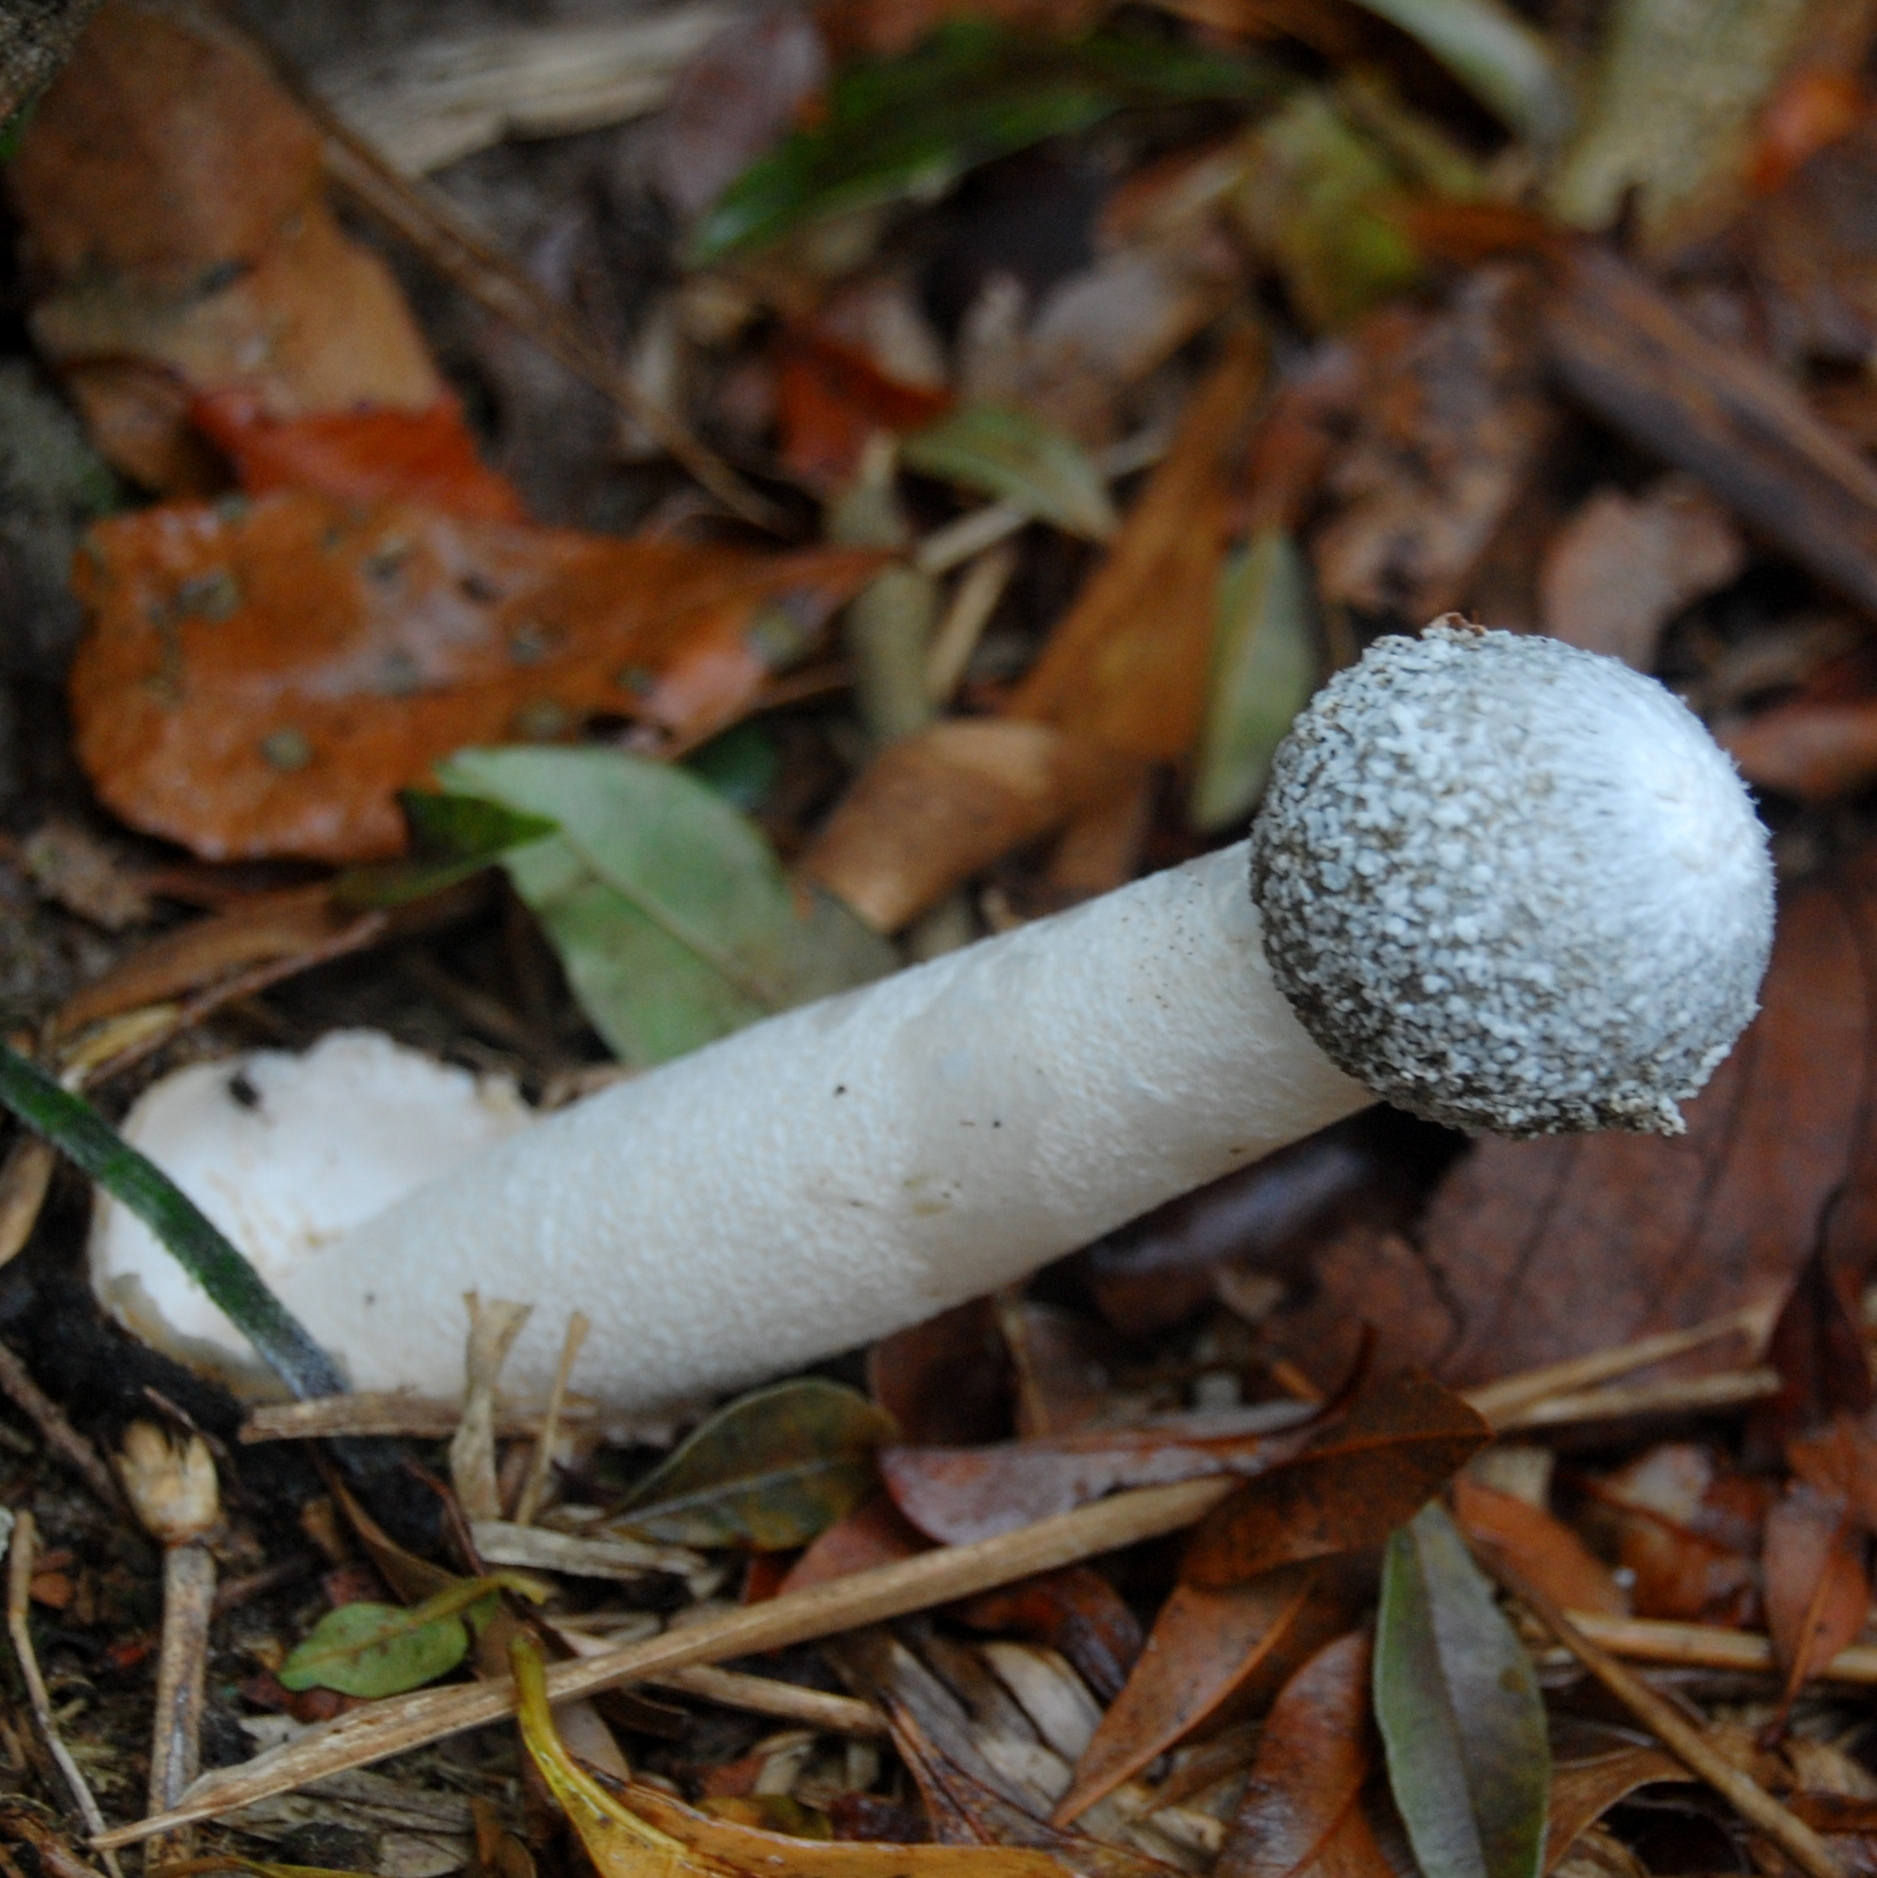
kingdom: Fungi
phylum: Basidiomycota
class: Agaricomycetes
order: Phallales
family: Phallaceae
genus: Itajahya
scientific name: Itajahya galericulata
